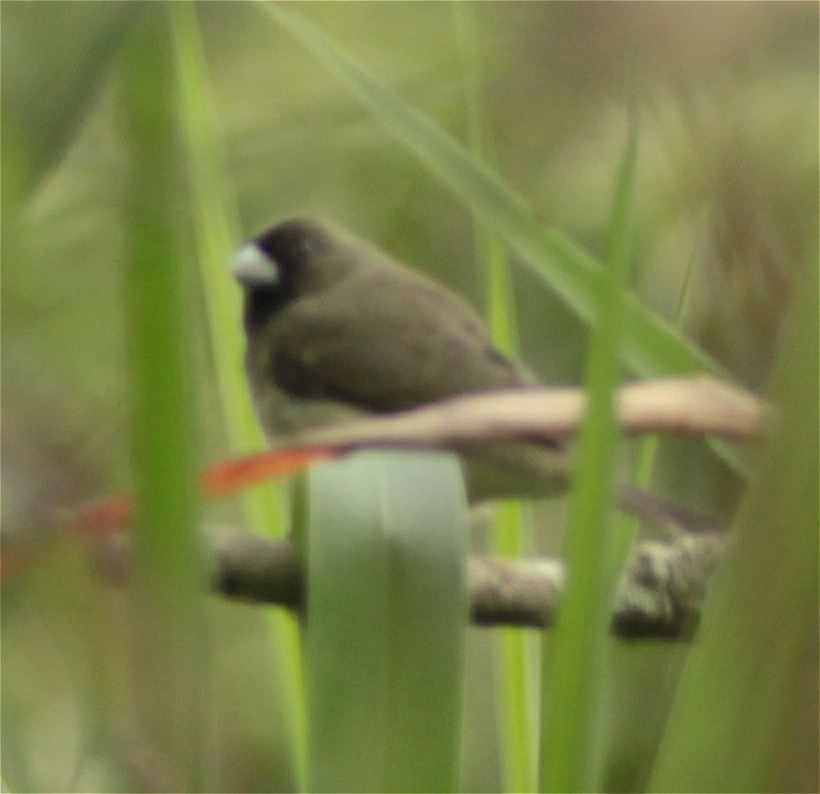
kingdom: Animalia
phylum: Chordata
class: Aves
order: Passeriformes
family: Thraupidae
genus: Sporophila
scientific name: Sporophila nigricollis
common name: Yellow-bellied seedeater
